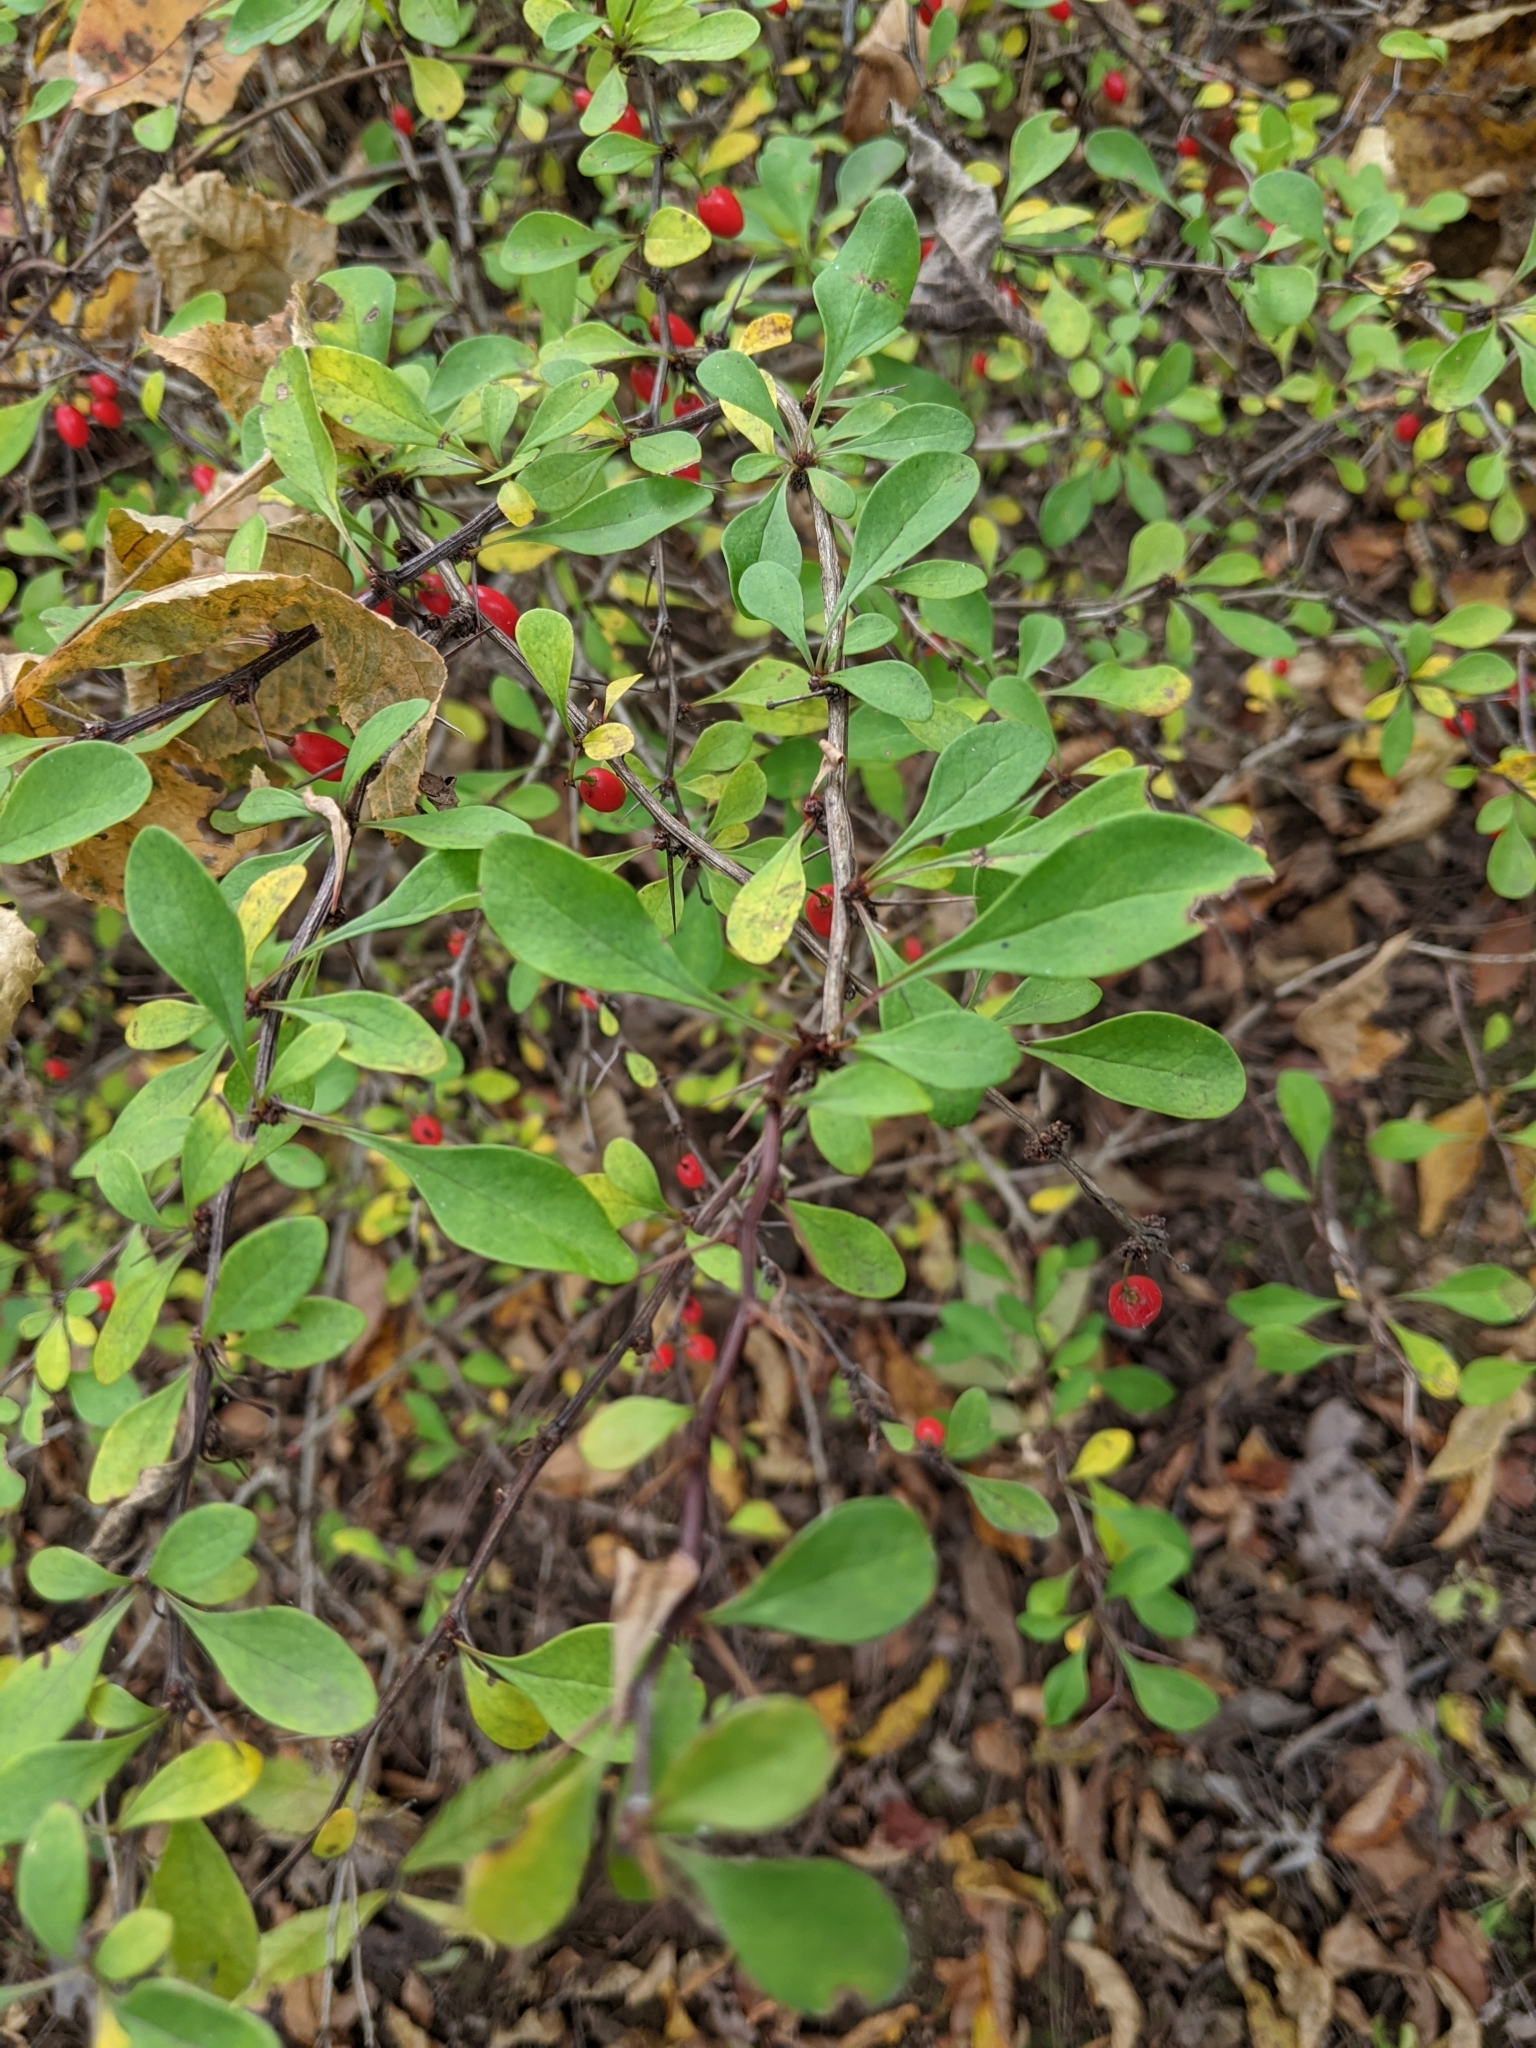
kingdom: Plantae
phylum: Tracheophyta
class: Magnoliopsida
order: Ranunculales
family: Berberidaceae
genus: Berberis
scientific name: Berberis thunbergii
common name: Japanese barberry
